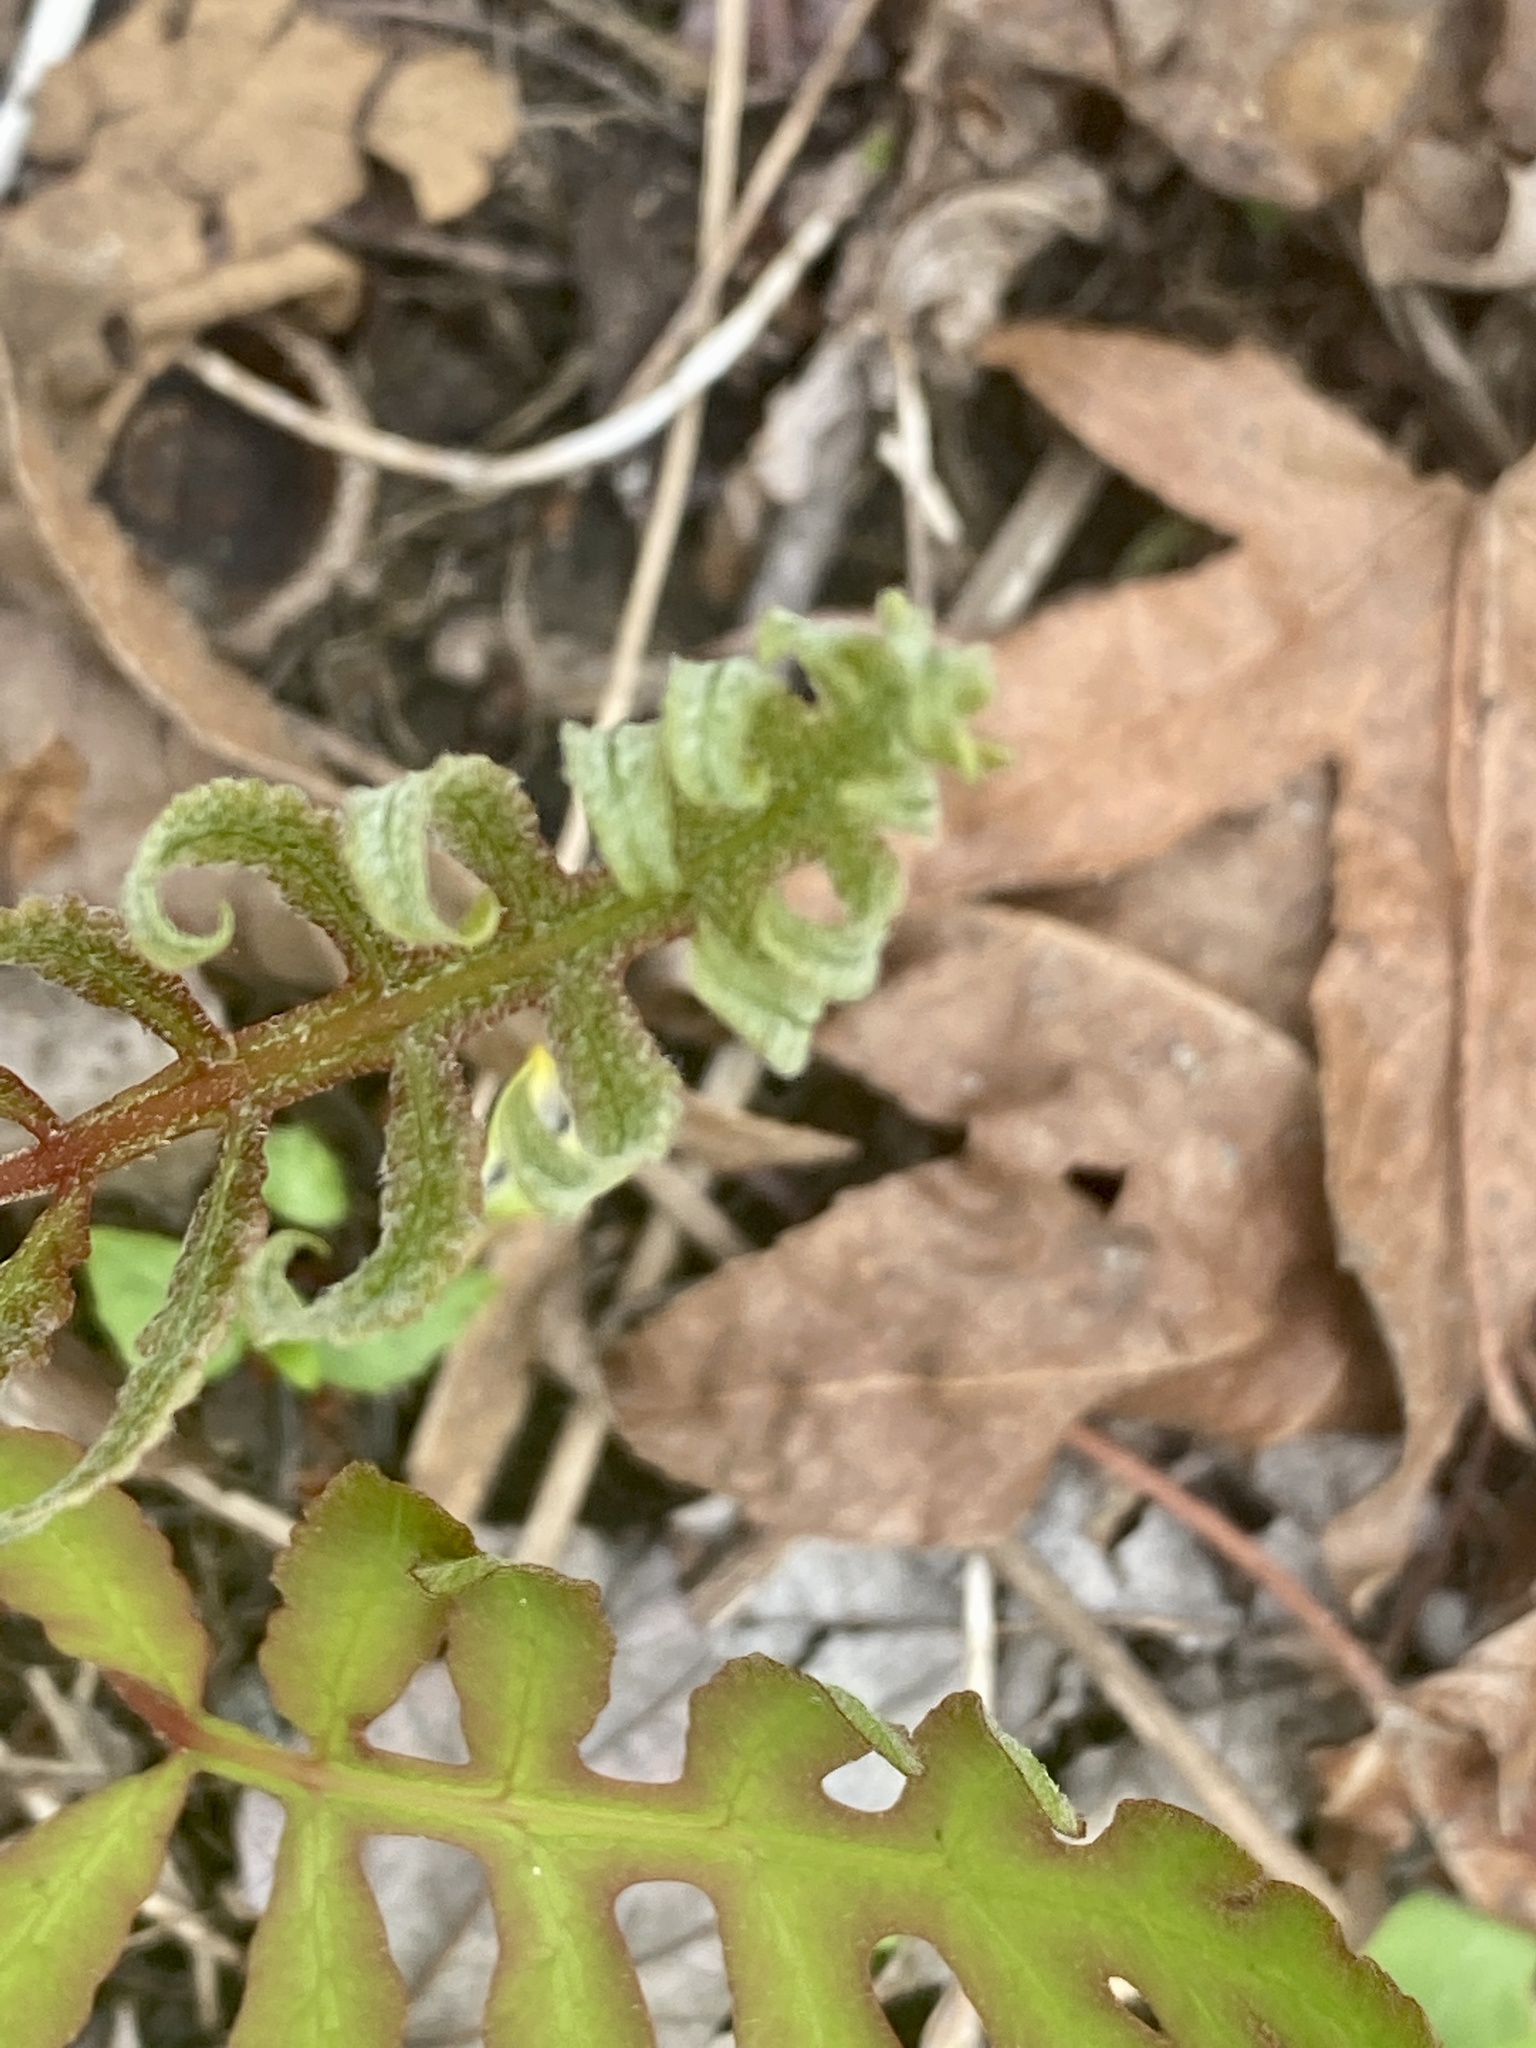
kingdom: Plantae
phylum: Tracheophyta
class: Polypodiopsida
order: Polypodiales
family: Onocleaceae
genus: Onoclea
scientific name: Onoclea sensibilis
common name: Sensitive fern
